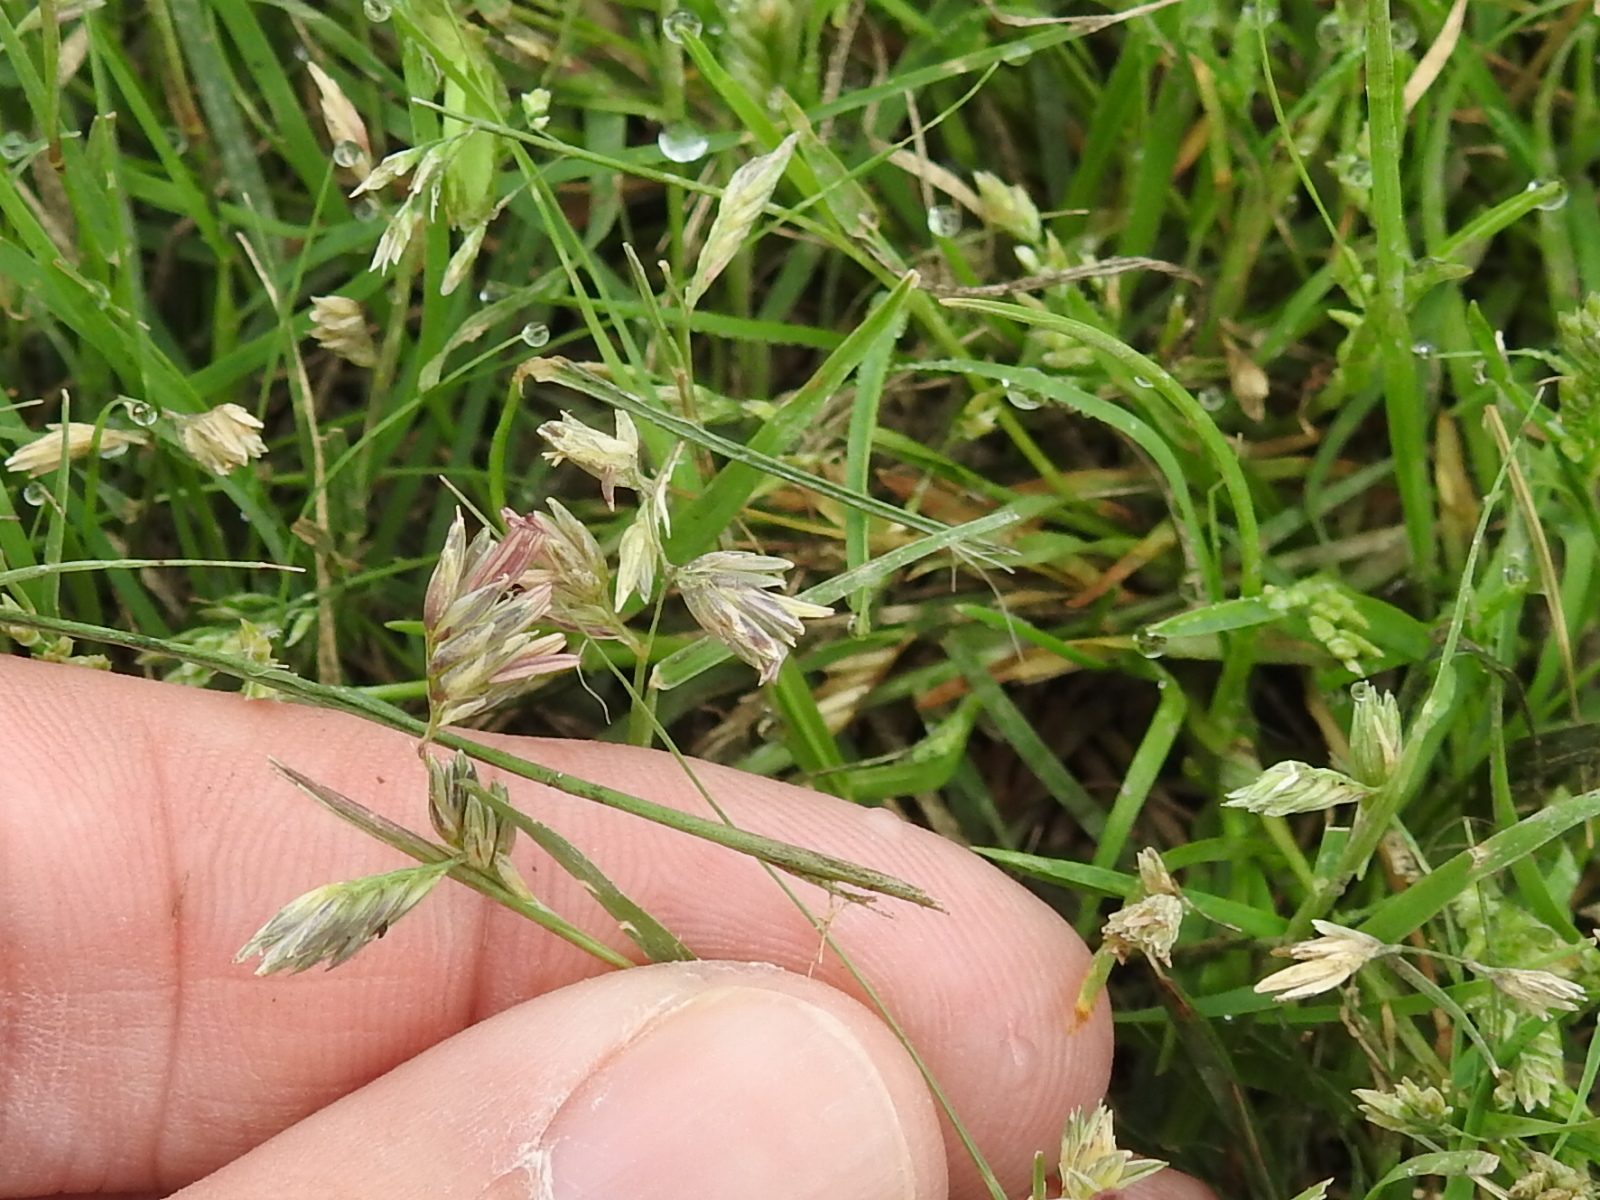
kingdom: Plantae
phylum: Tracheophyta
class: Liliopsida
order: Poales
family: Poaceae
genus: Bouteloua
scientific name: Bouteloua dactyloides
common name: Buffalo grass
